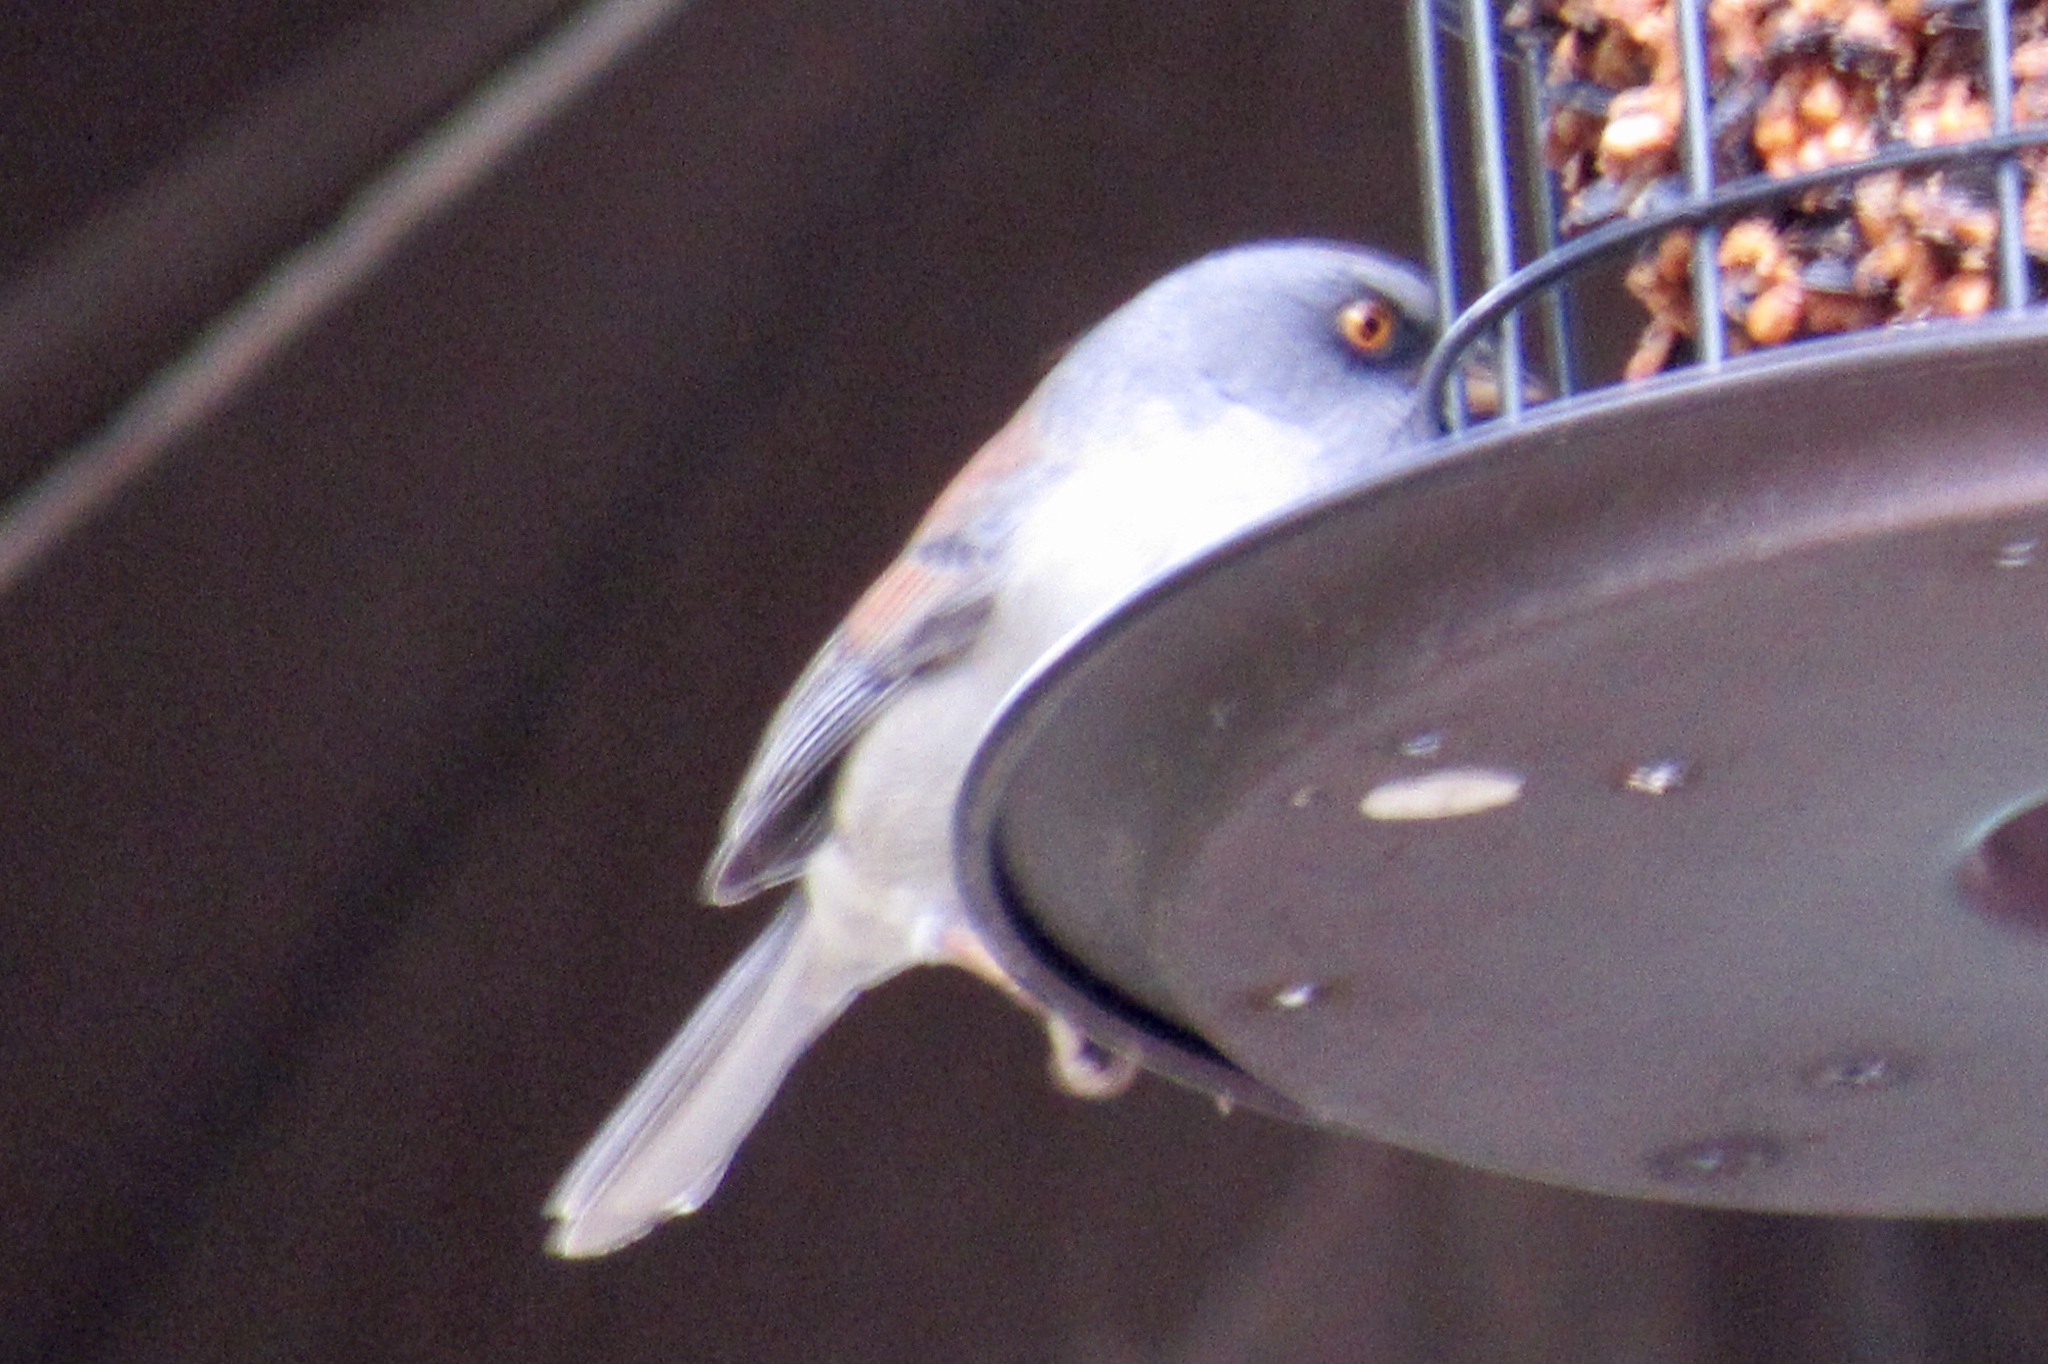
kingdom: Animalia
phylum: Chordata
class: Aves
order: Passeriformes
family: Passerellidae
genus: Junco
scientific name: Junco phaeonotus
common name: Yellow-eyed junco
